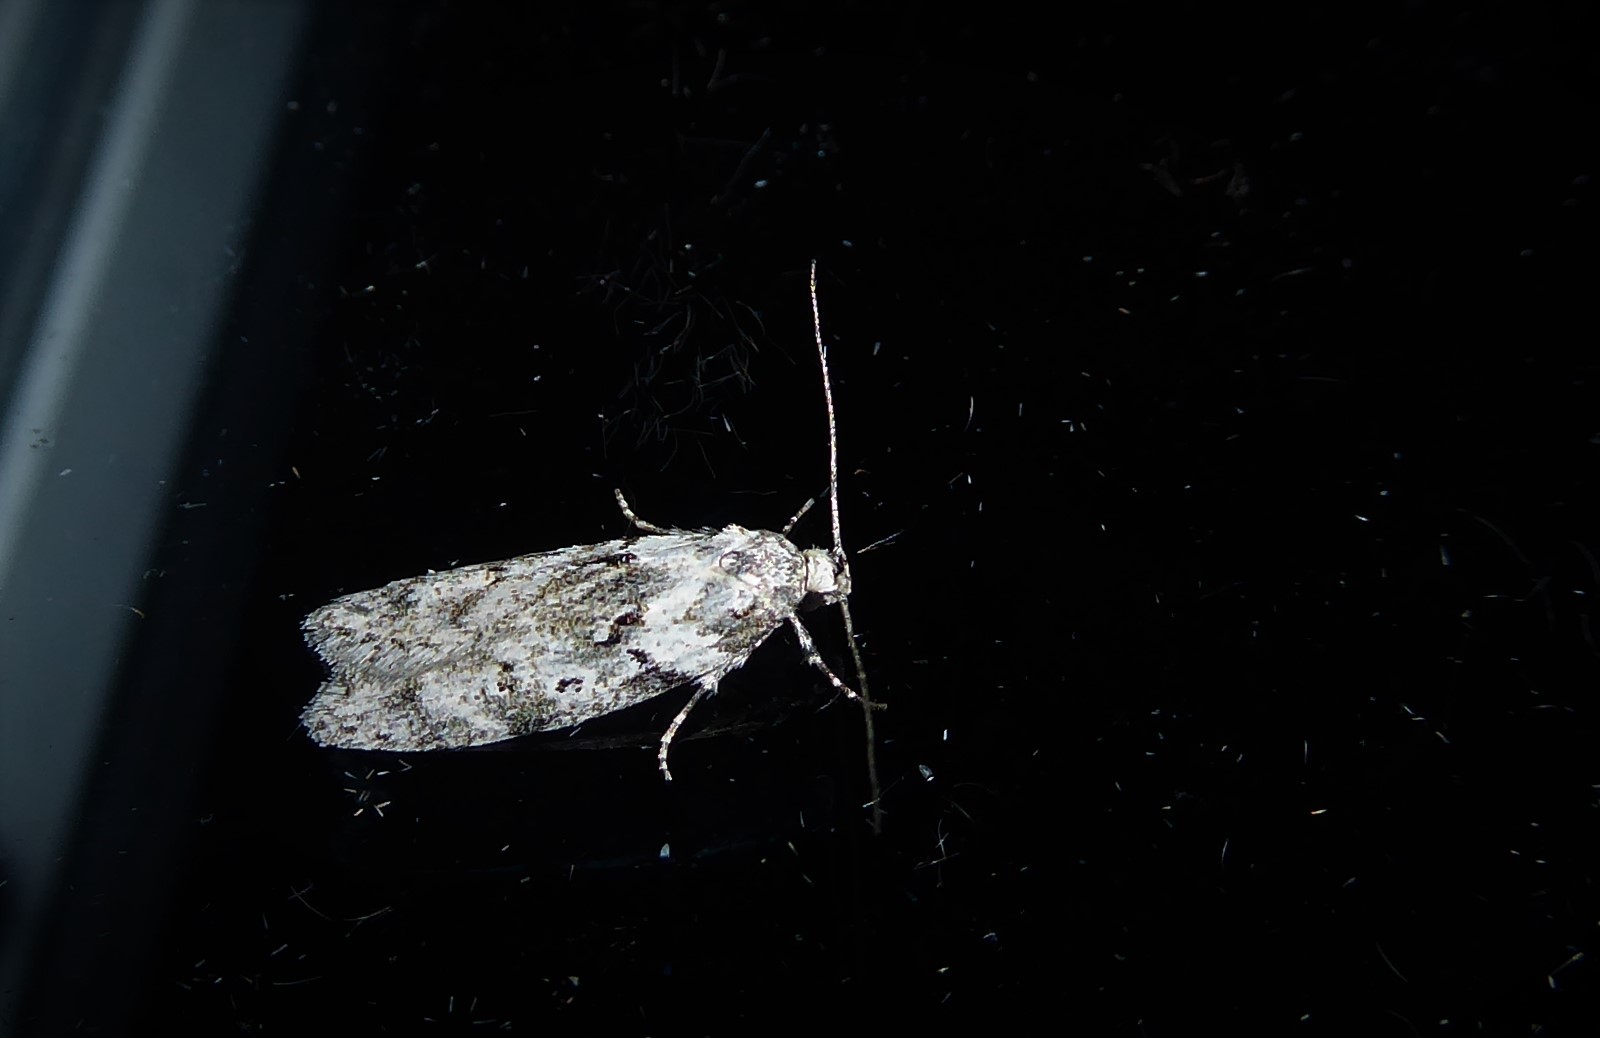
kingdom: Animalia
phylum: Arthropoda
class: Insecta
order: Lepidoptera
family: Oecophoridae
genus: Izatha
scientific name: Izatha convulsella
